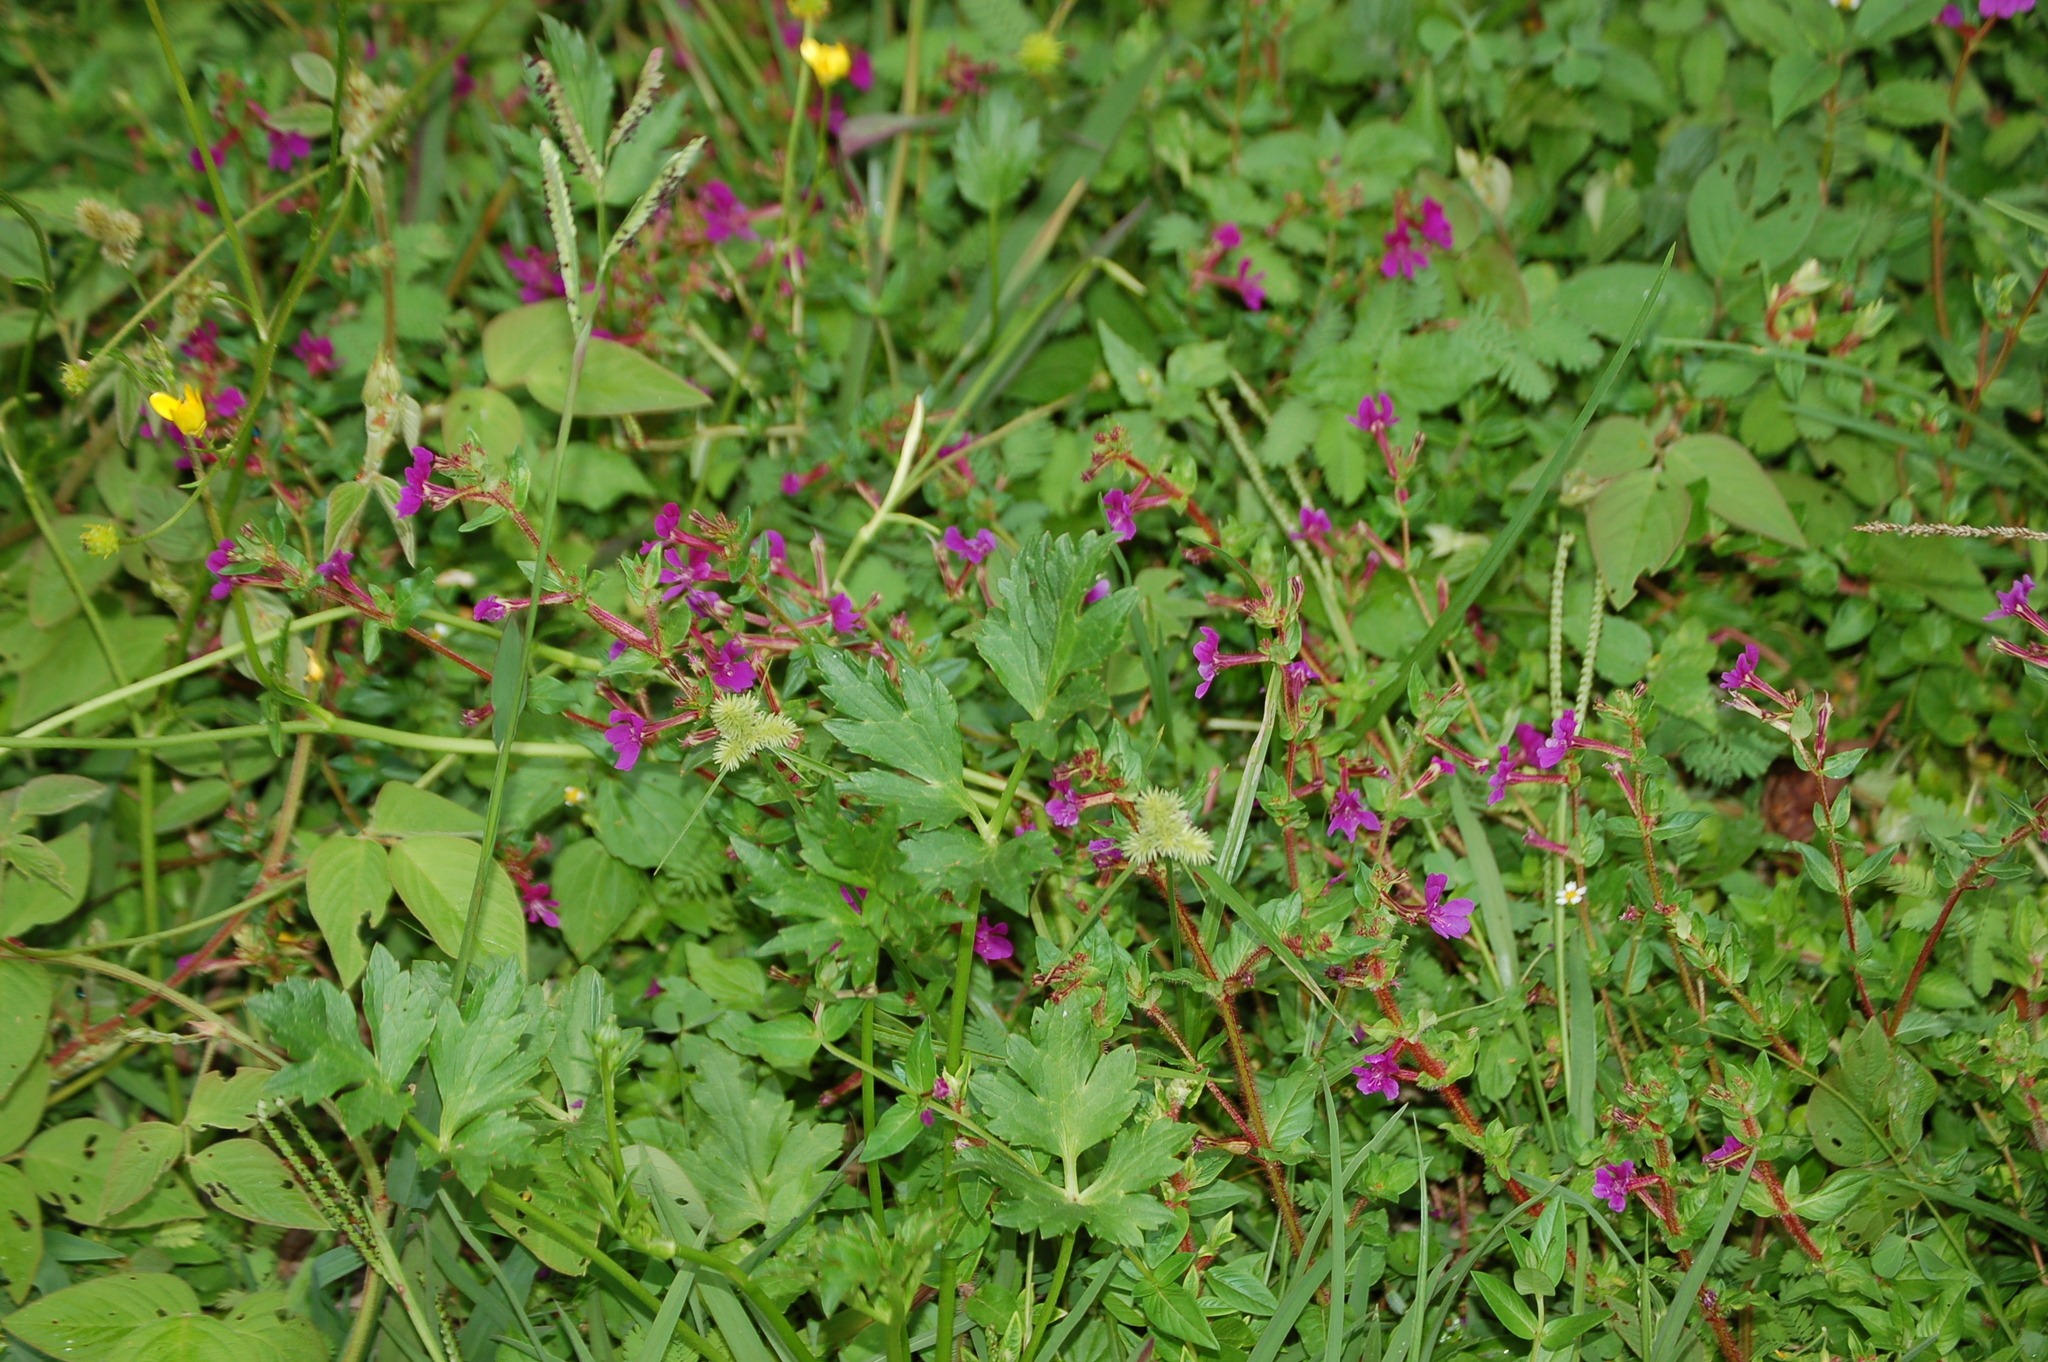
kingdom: Plantae
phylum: Tracheophyta
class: Magnoliopsida
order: Myrtales
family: Lythraceae
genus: Cuphea
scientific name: Cuphea aequipetala
